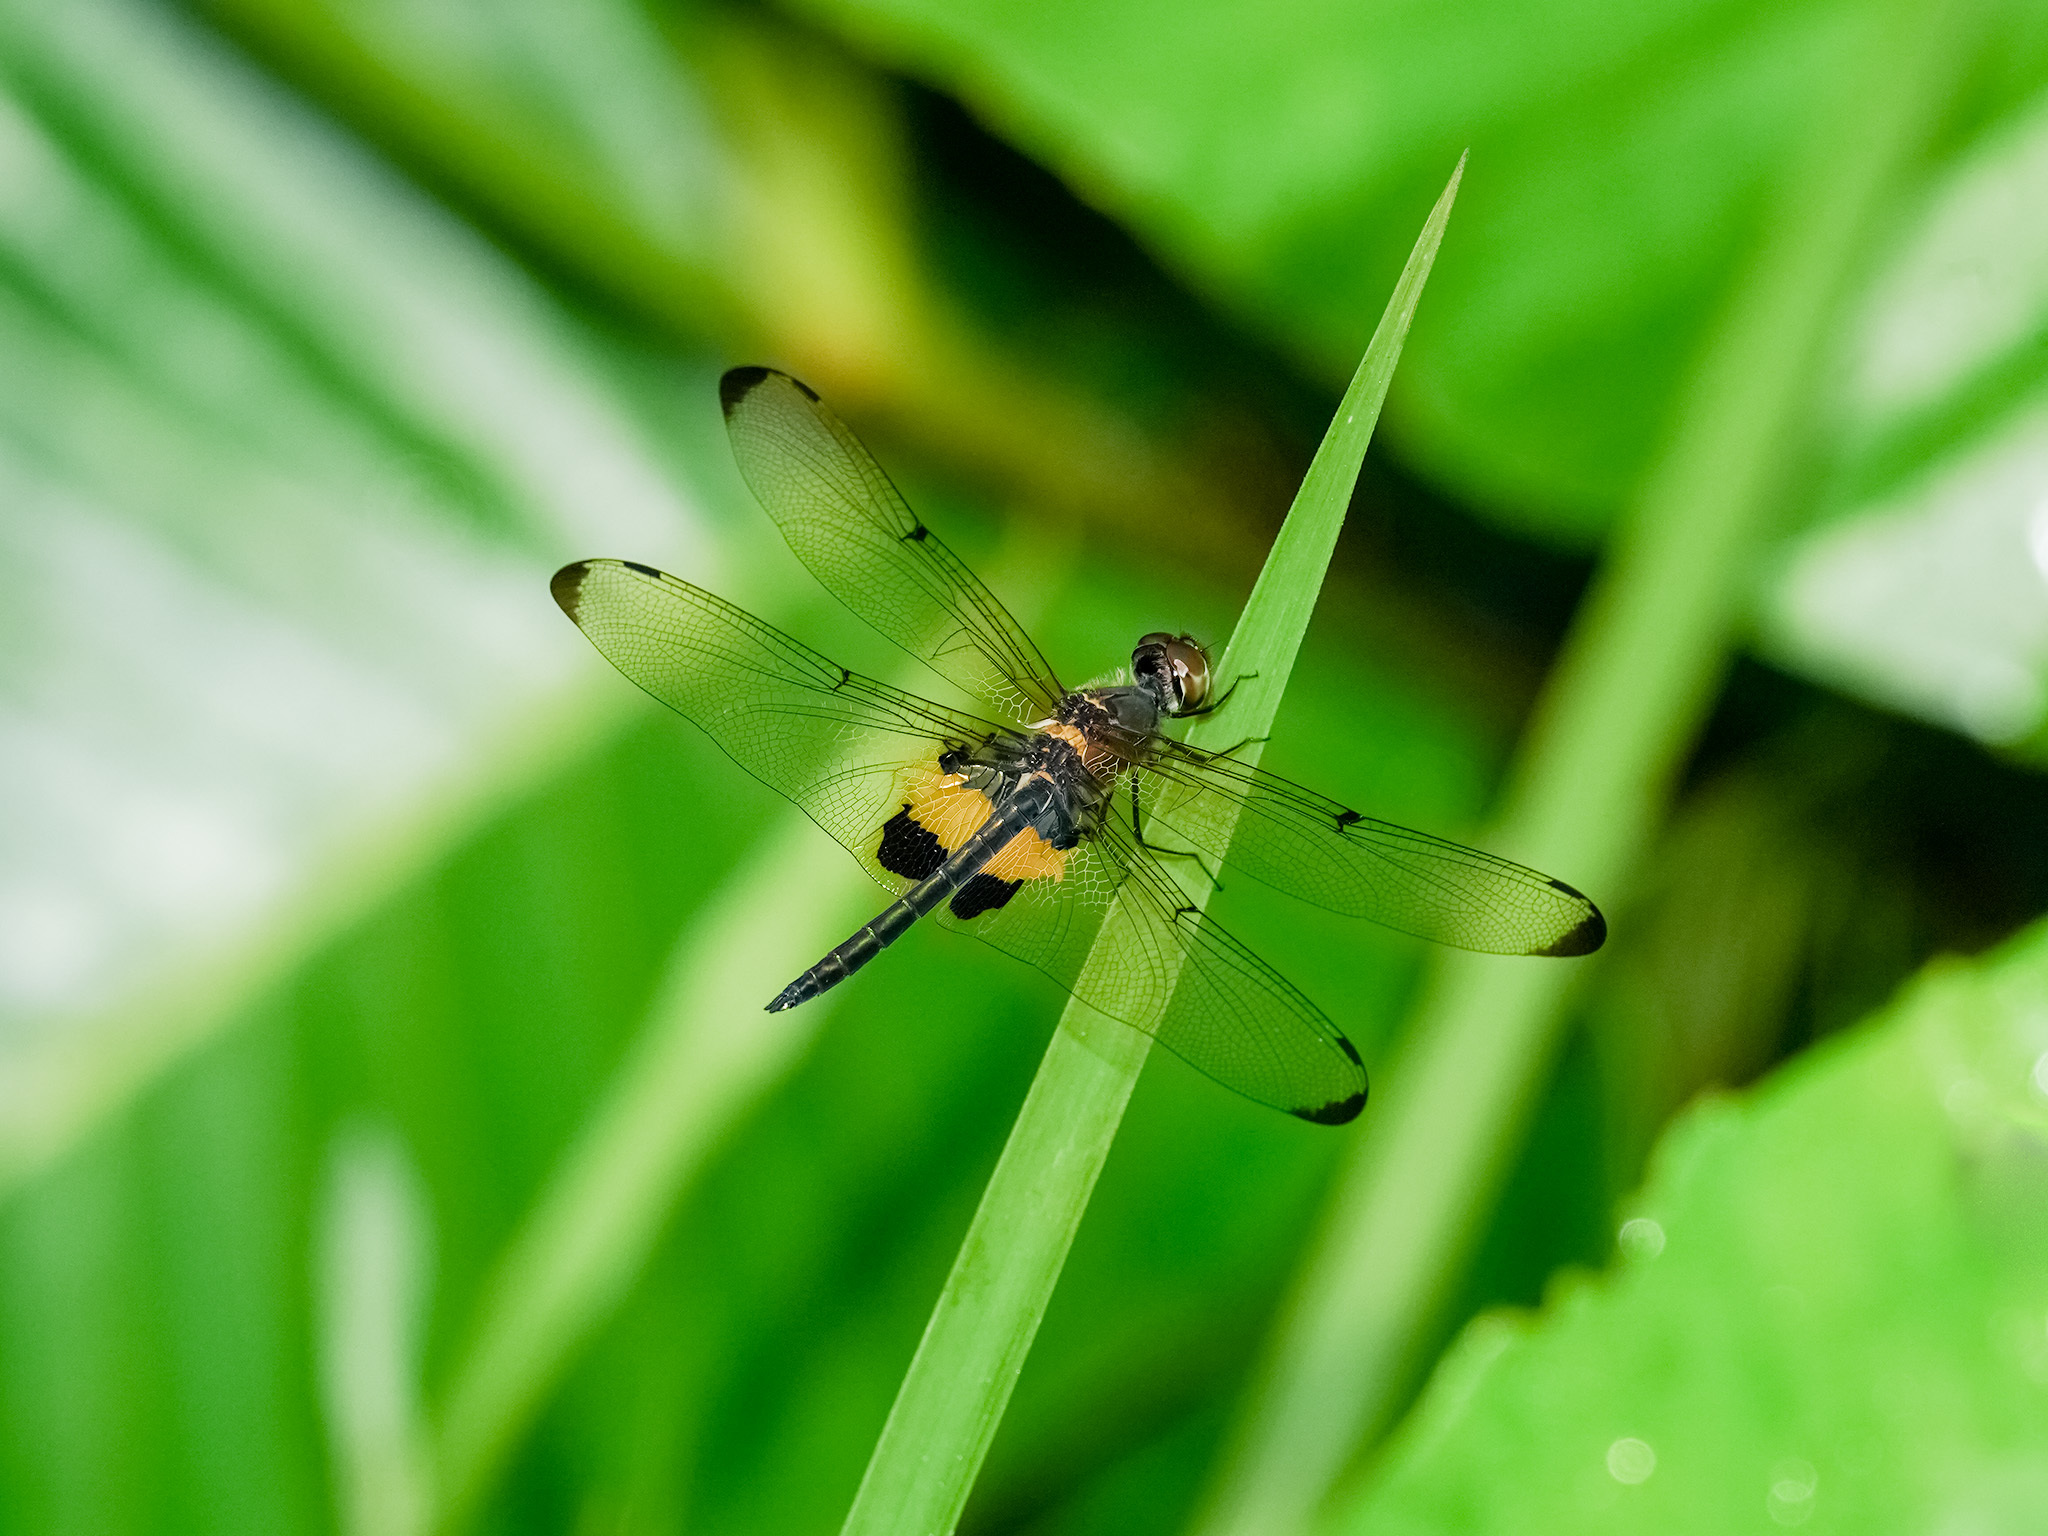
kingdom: Animalia
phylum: Arthropoda
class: Insecta
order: Odonata
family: Libellulidae
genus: Rhyothemis
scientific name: Rhyothemis phyllis
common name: Yellow-barred flutterer
